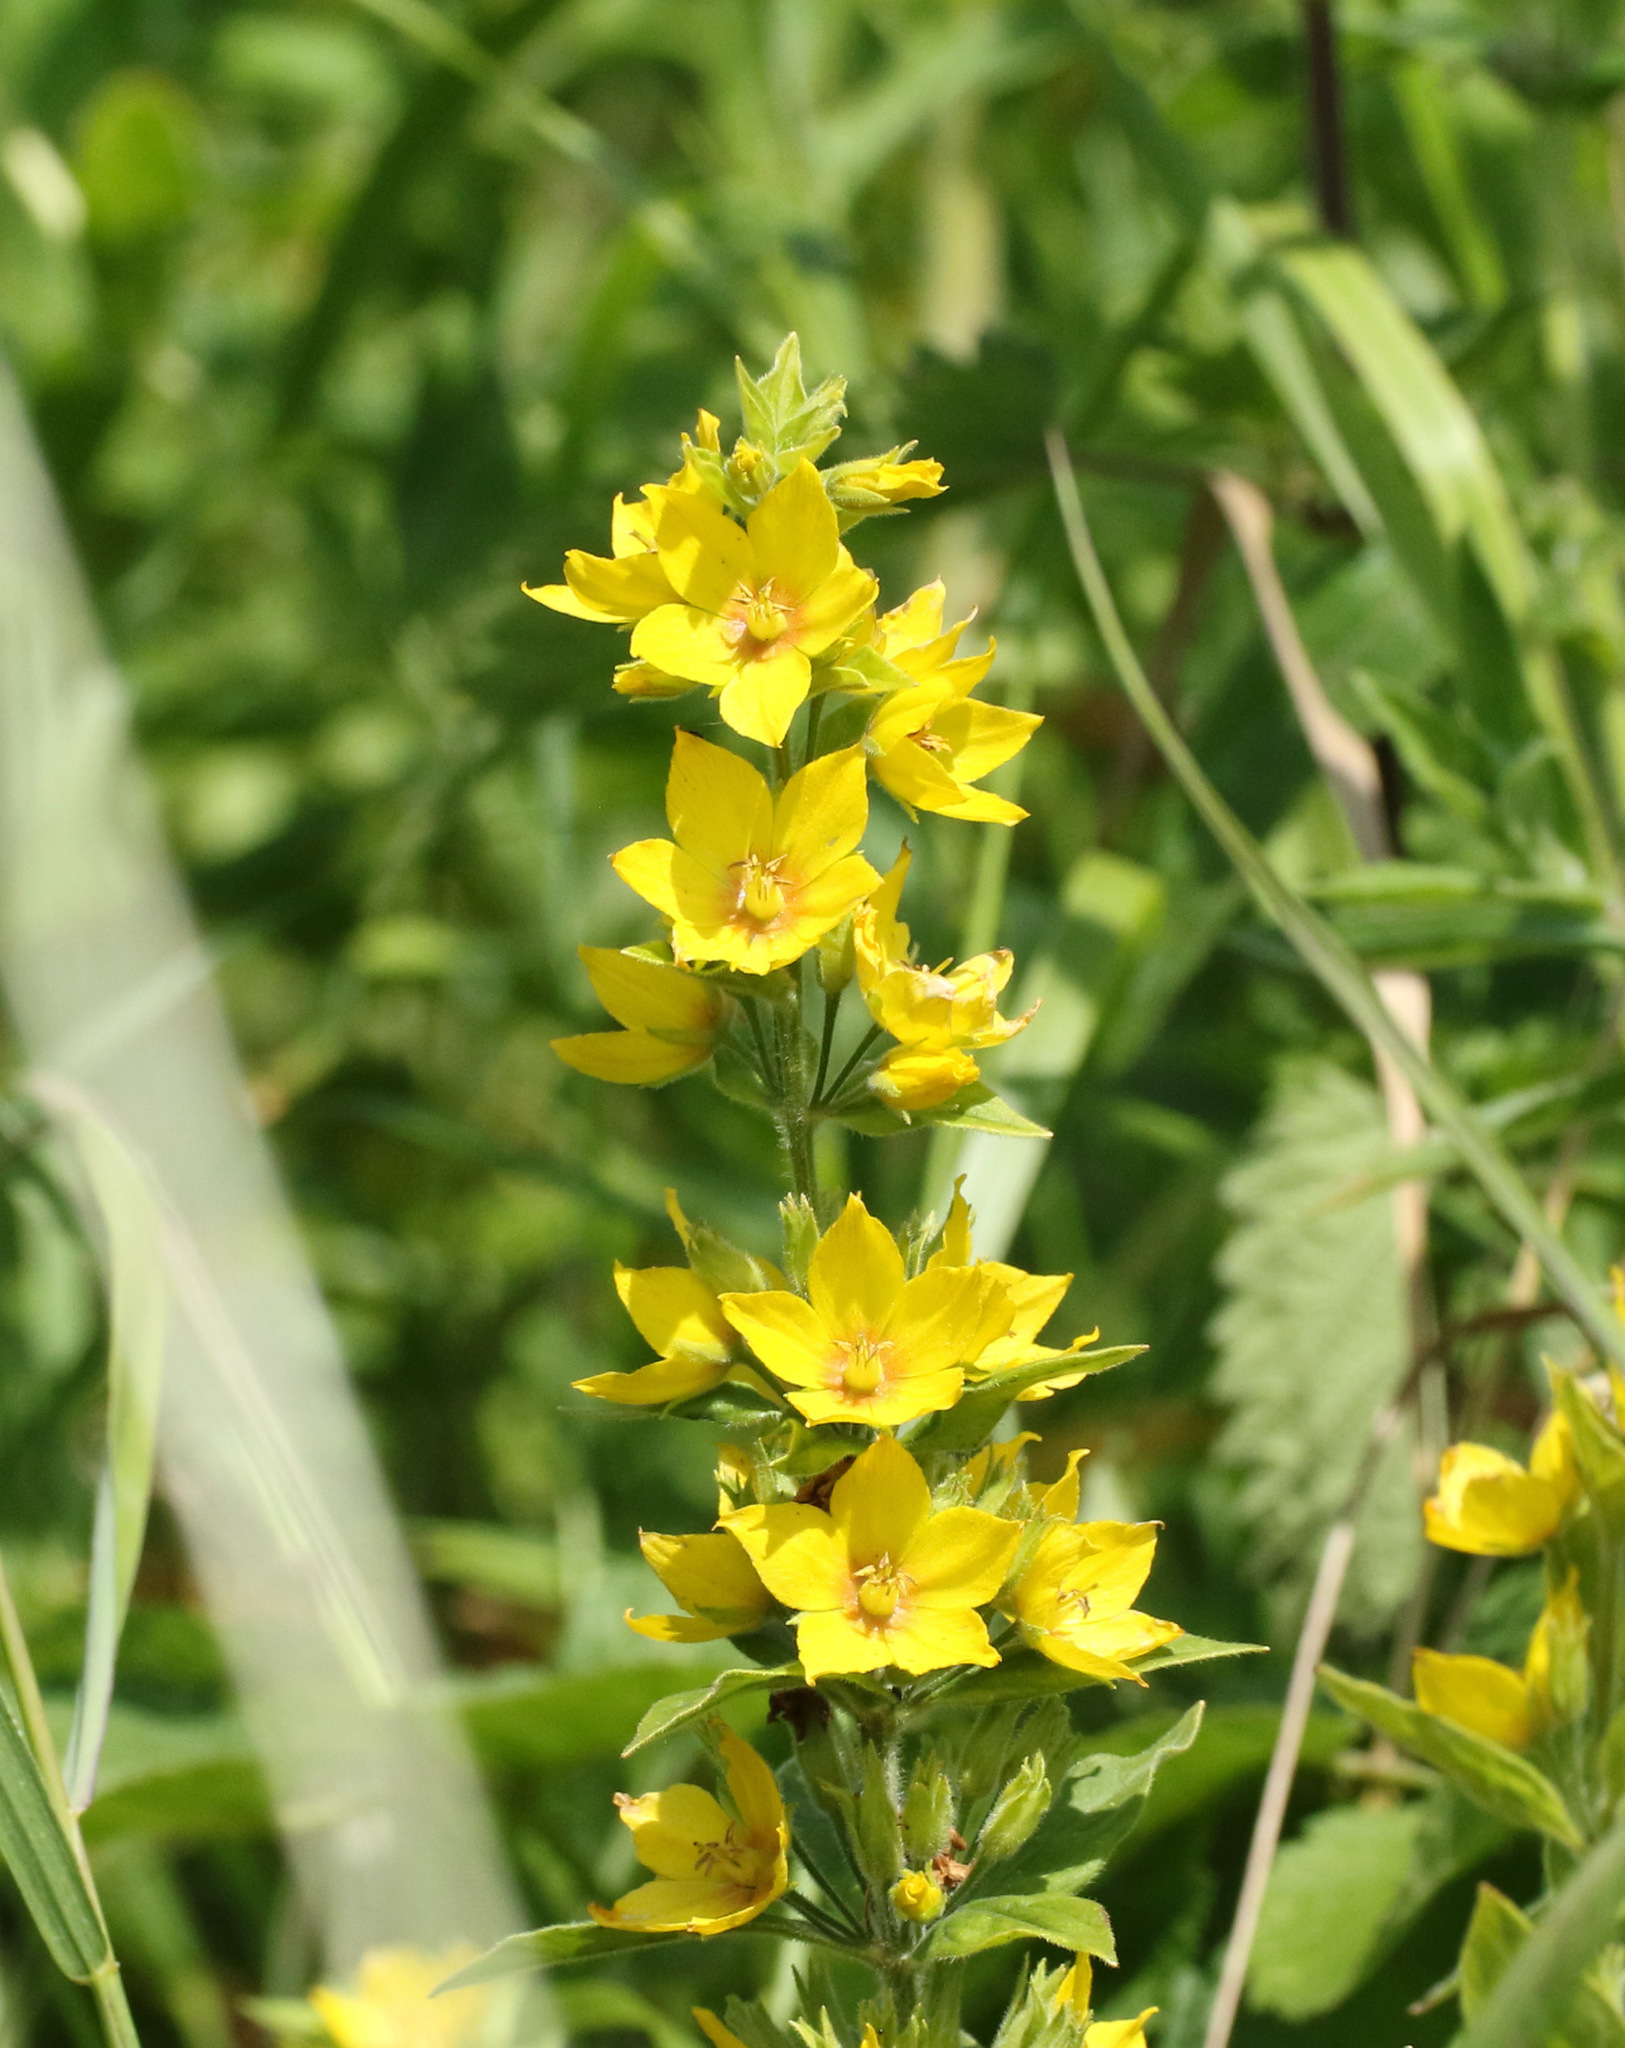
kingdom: Plantae
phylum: Tracheophyta
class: Magnoliopsida
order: Ericales
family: Primulaceae
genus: Lysimachia
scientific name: Lysimachia punctata
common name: Dotted loosestrife
